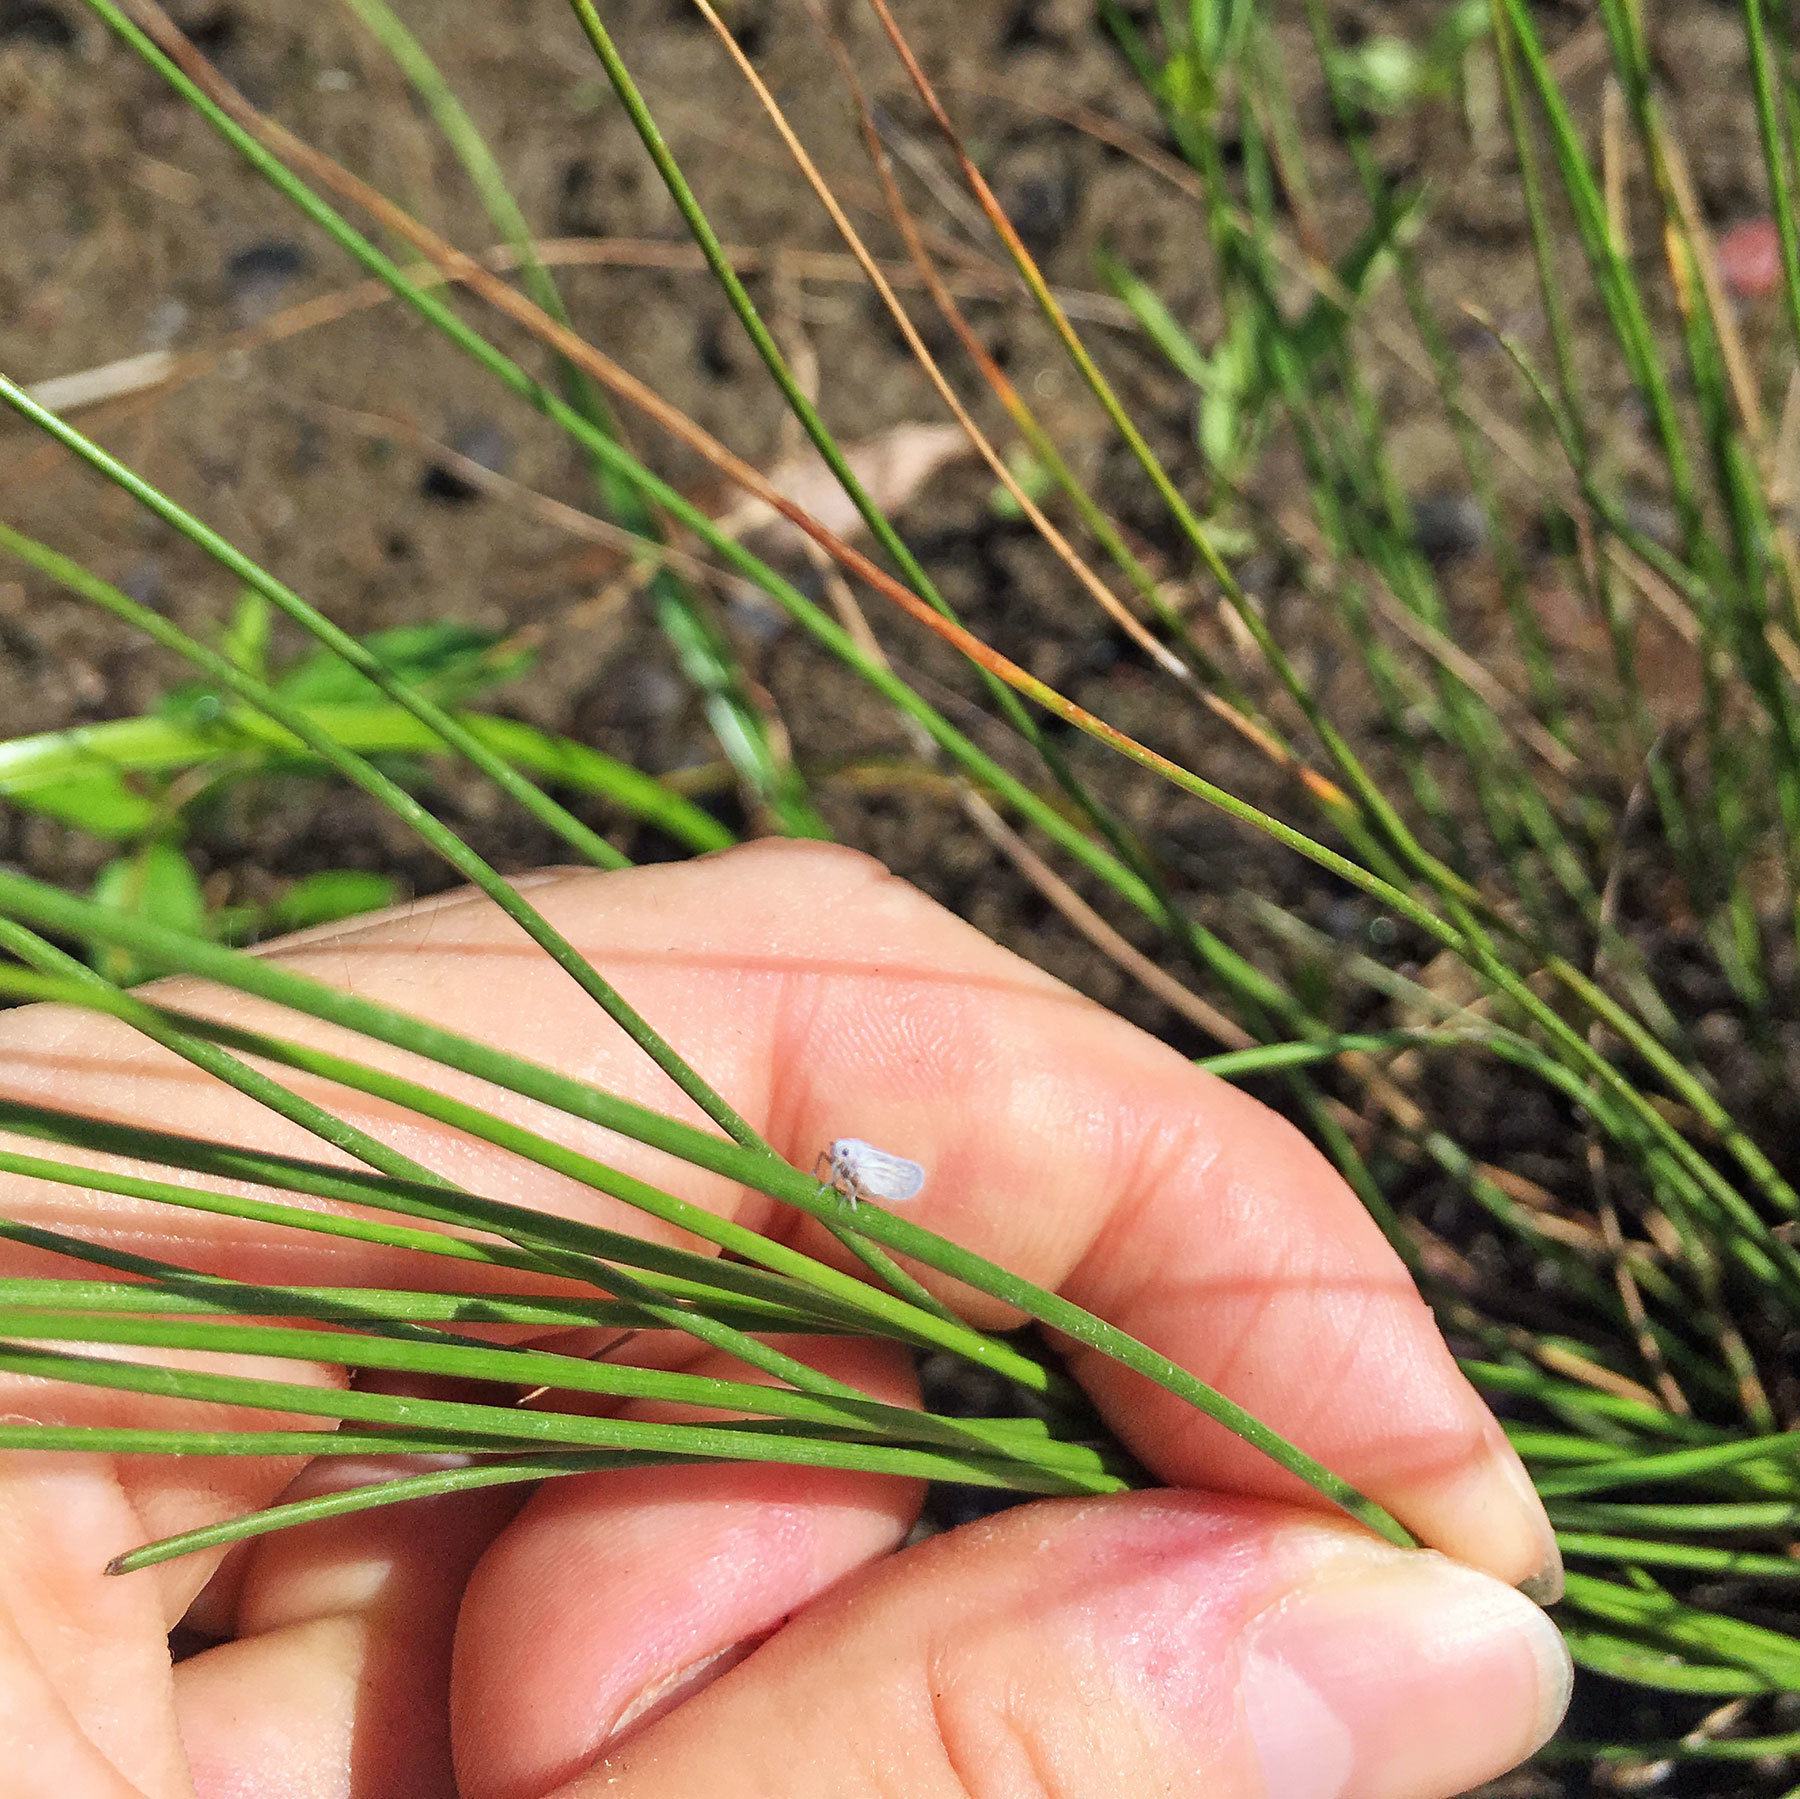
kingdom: Animalia
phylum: Arthropoda
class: Insecta
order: Hemiptera
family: Meenoplidae
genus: Nisia
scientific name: Nisia nervosa
